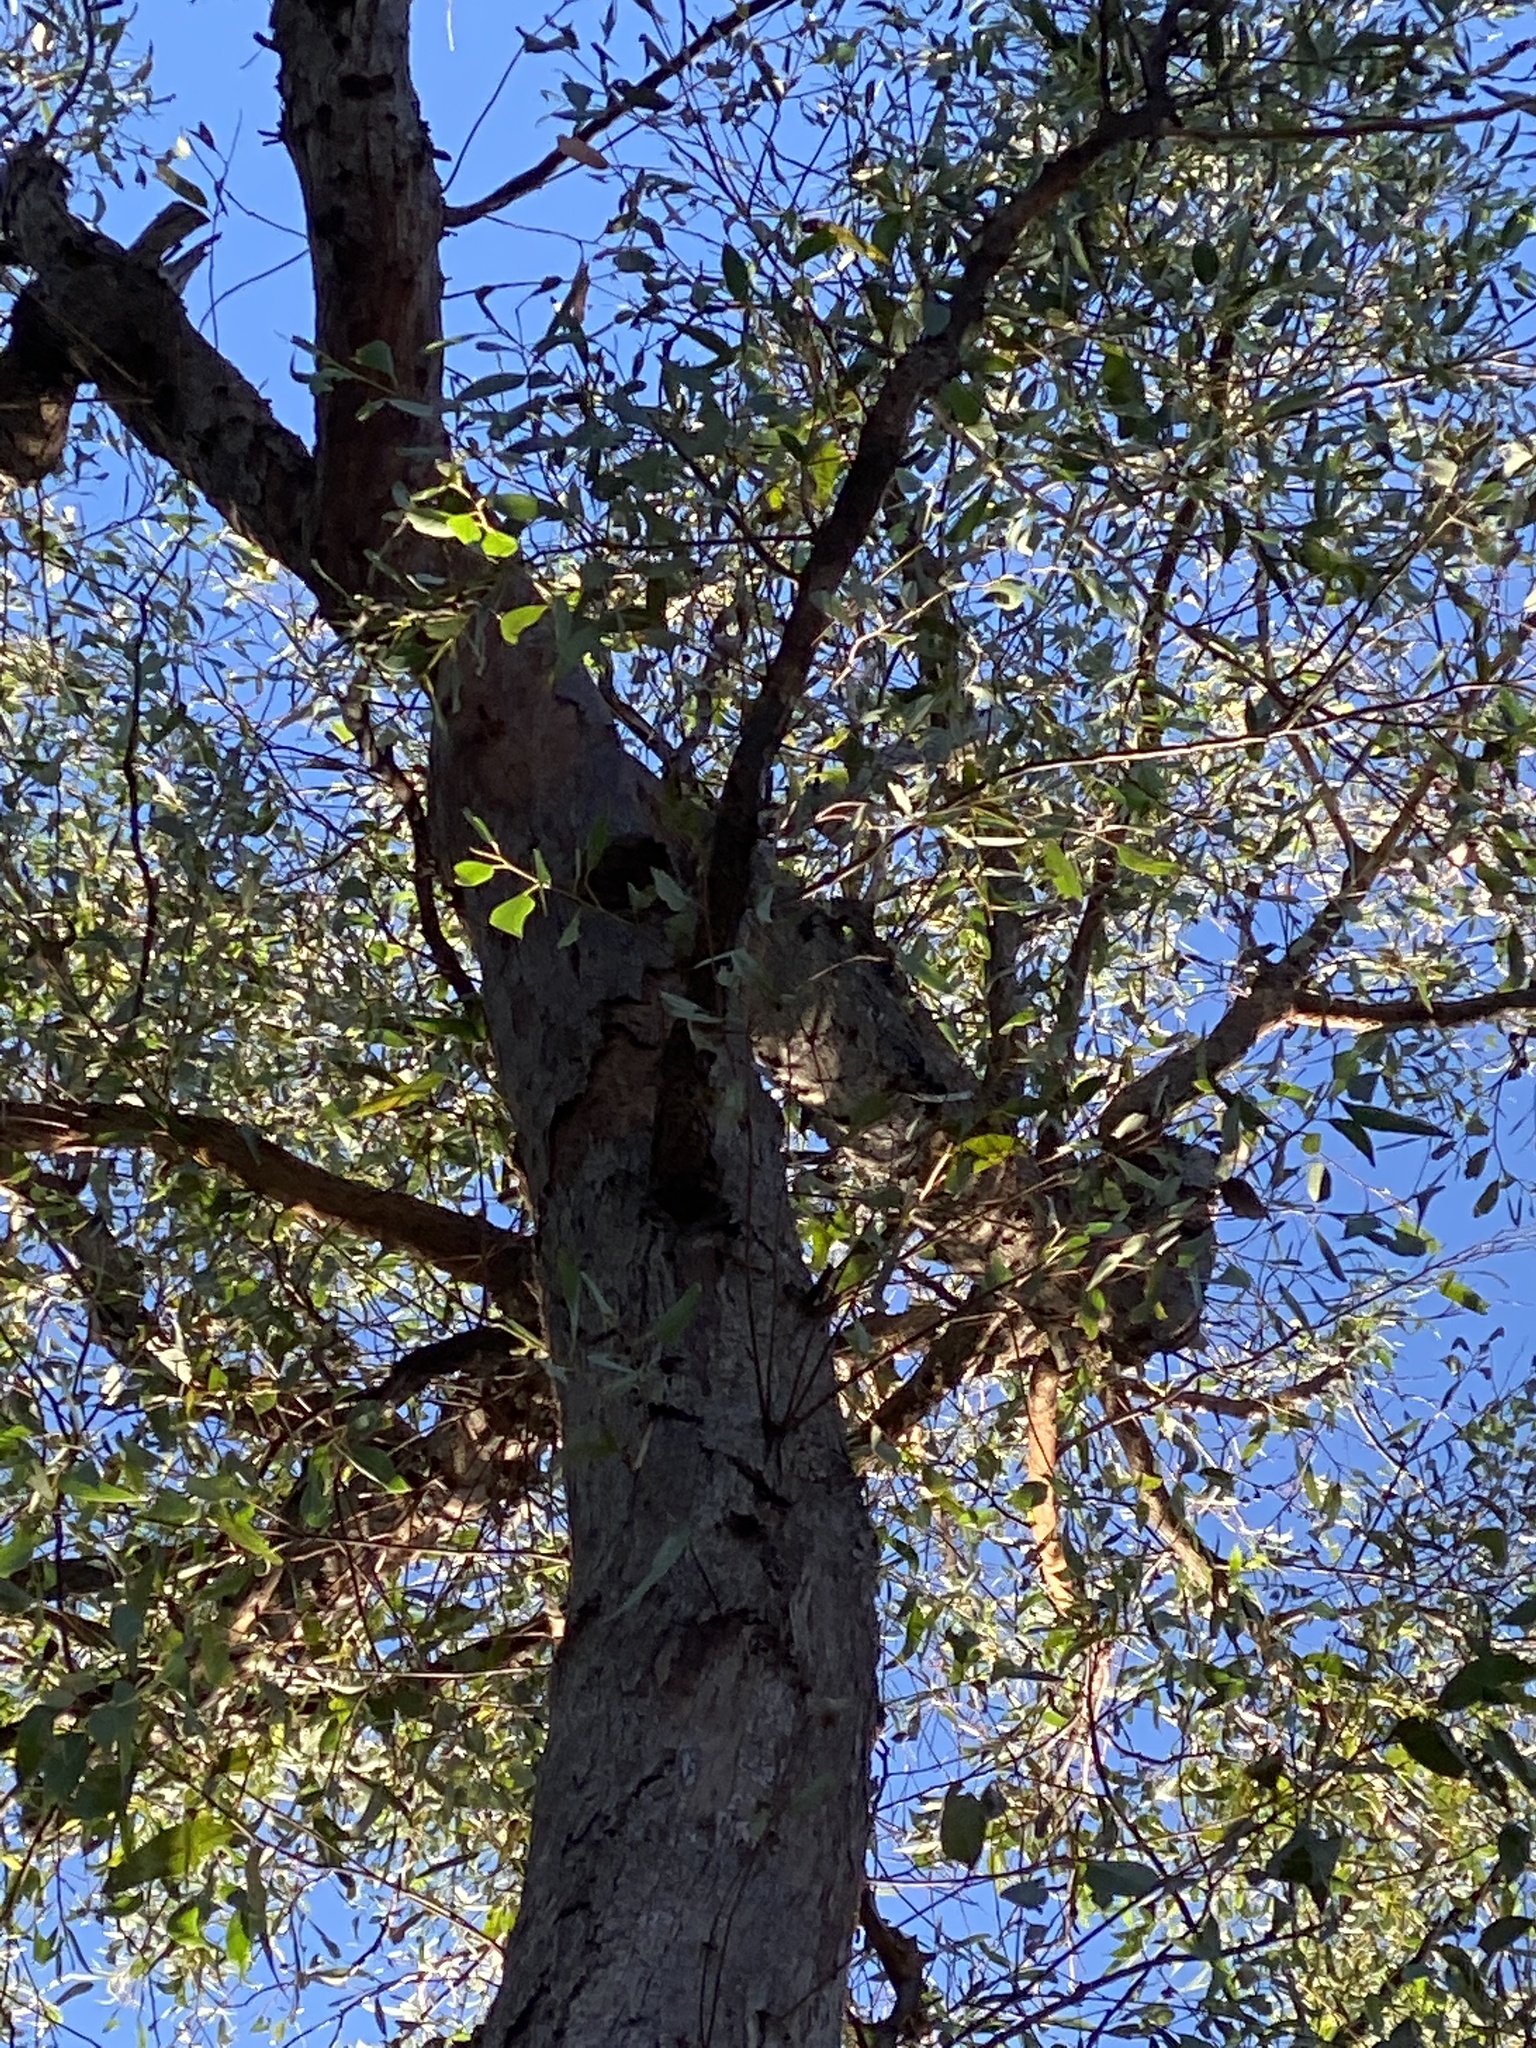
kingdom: Plantae
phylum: Tracheophyta
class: Magnoliopsida
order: Myrtales
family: Myrtaceae
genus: Eucalyptus
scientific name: Eucalyptus planchoniana
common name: Bastard-tallow-wood
